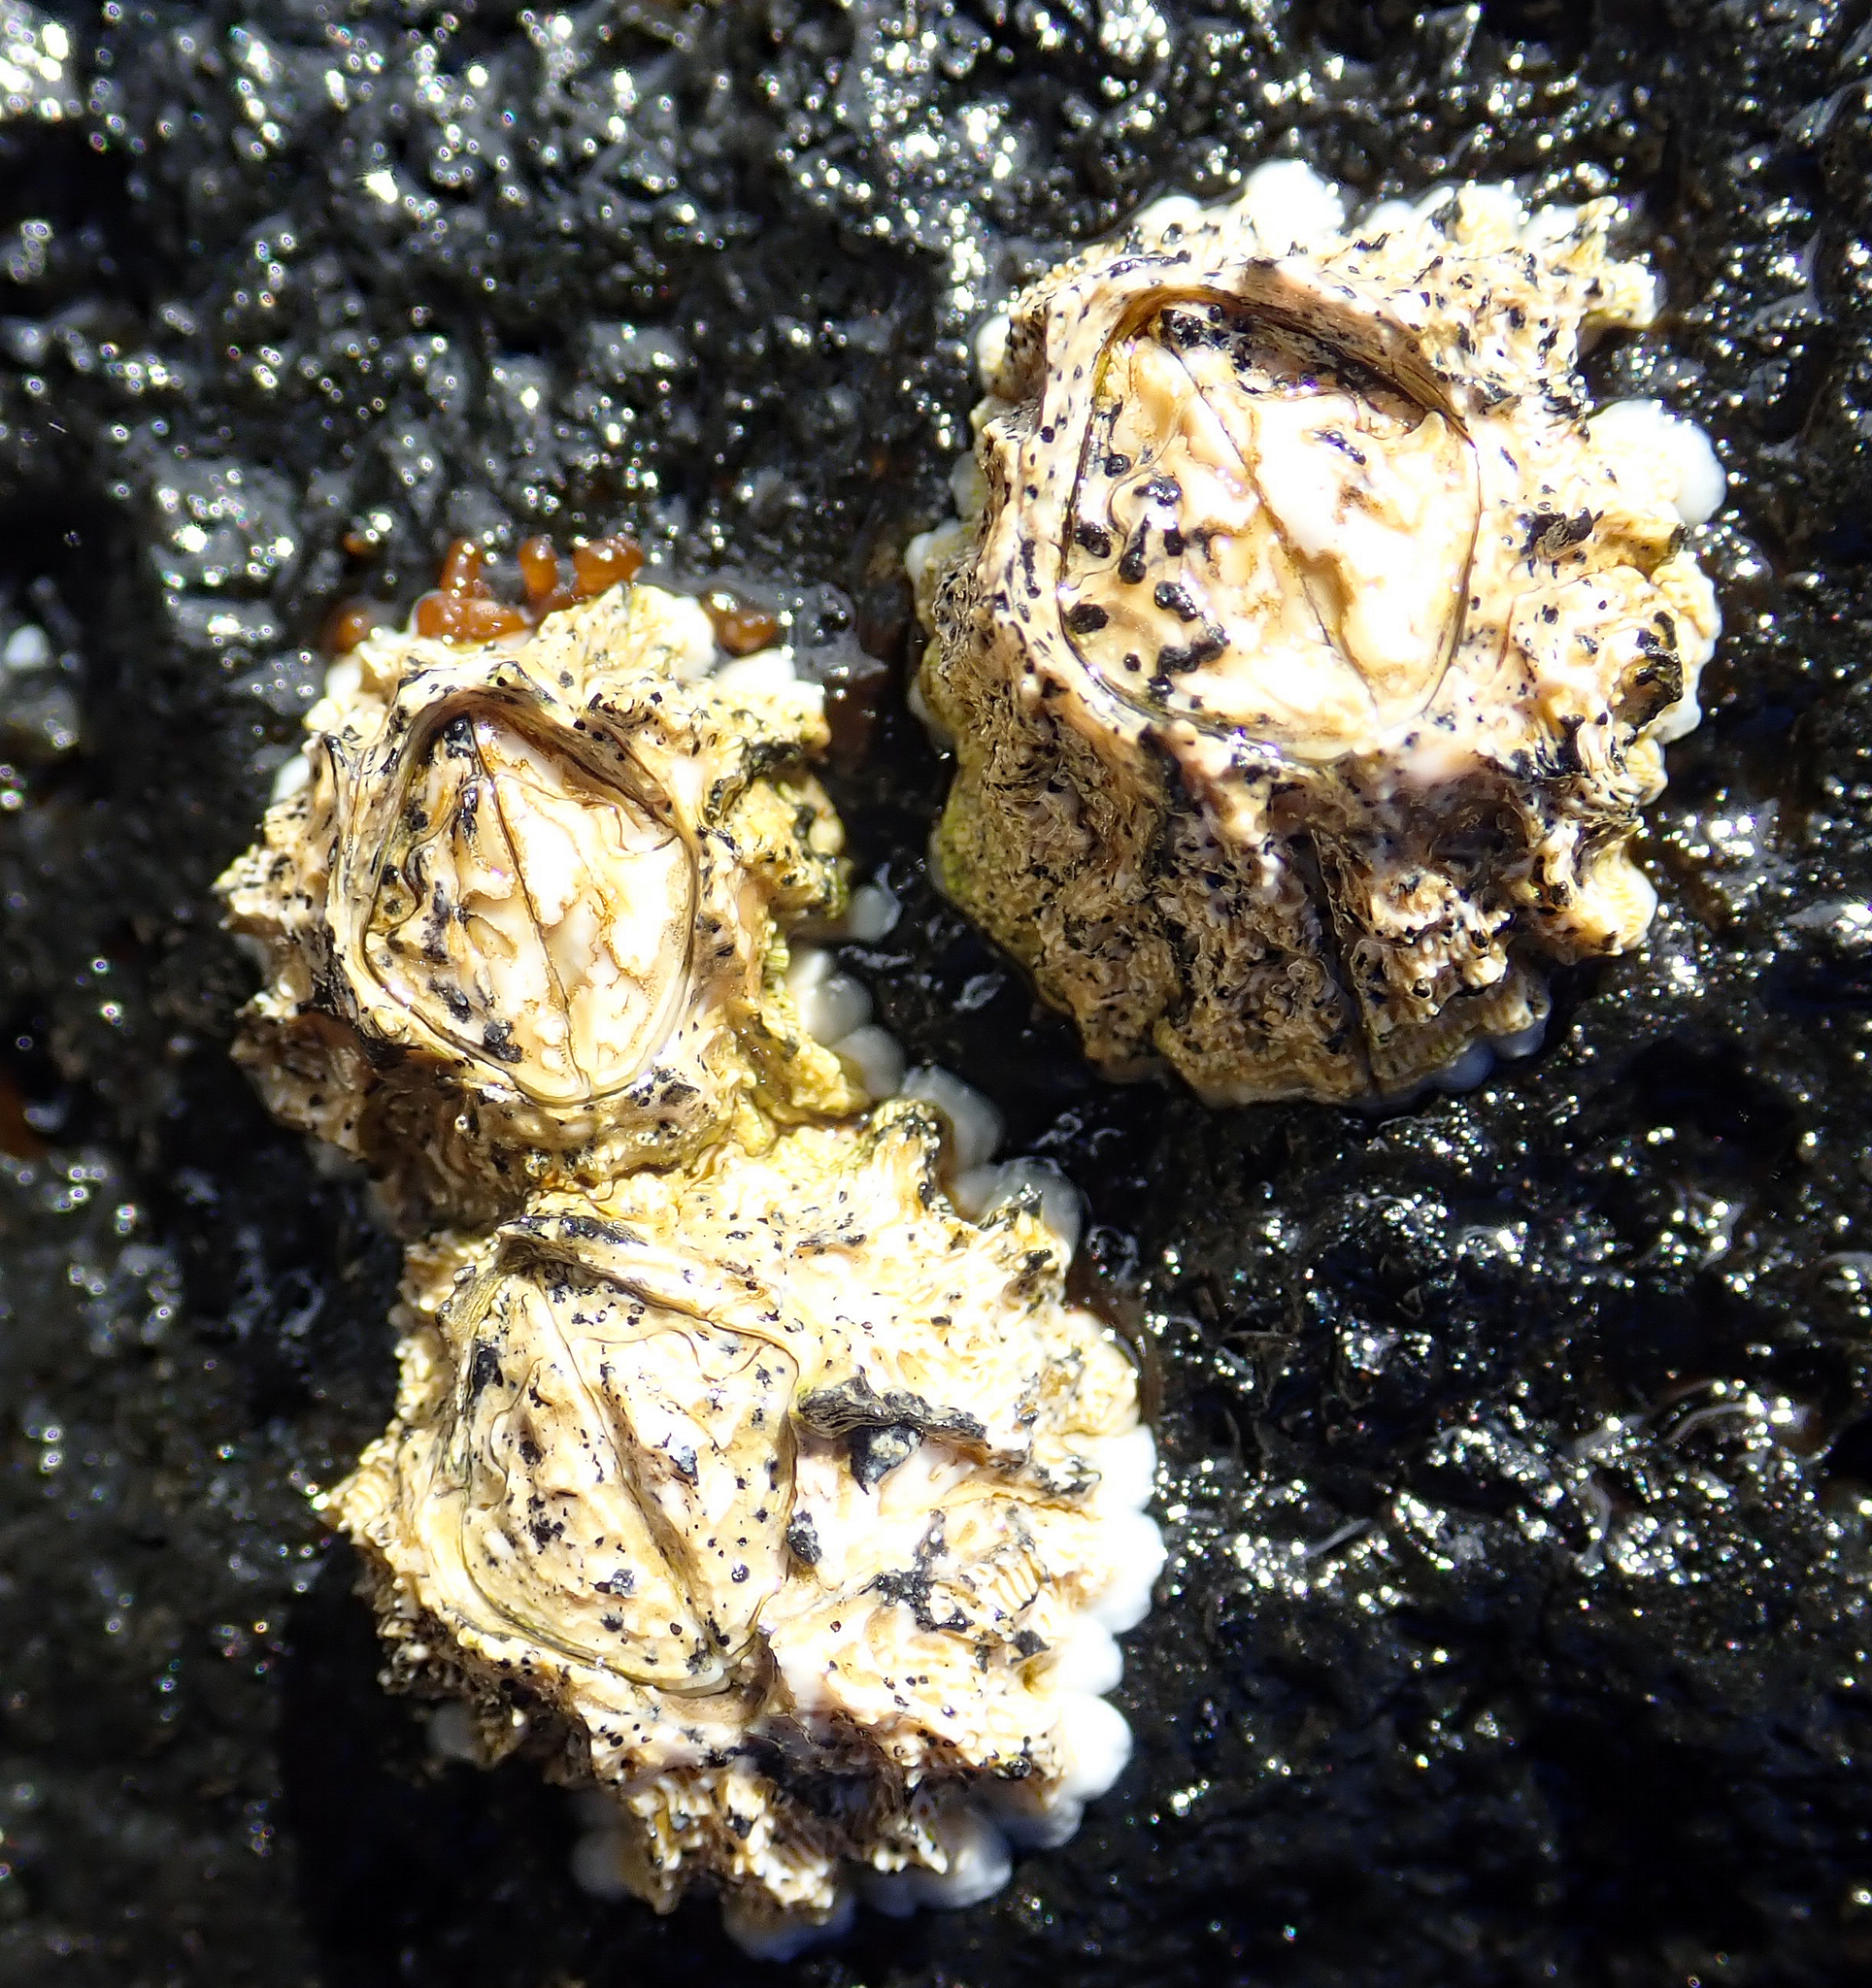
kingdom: Animalia
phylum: Arthropoda
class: Maxillopoda
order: Sessilia
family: Tetraclitidae
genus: Epopella
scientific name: Epopella plicata
